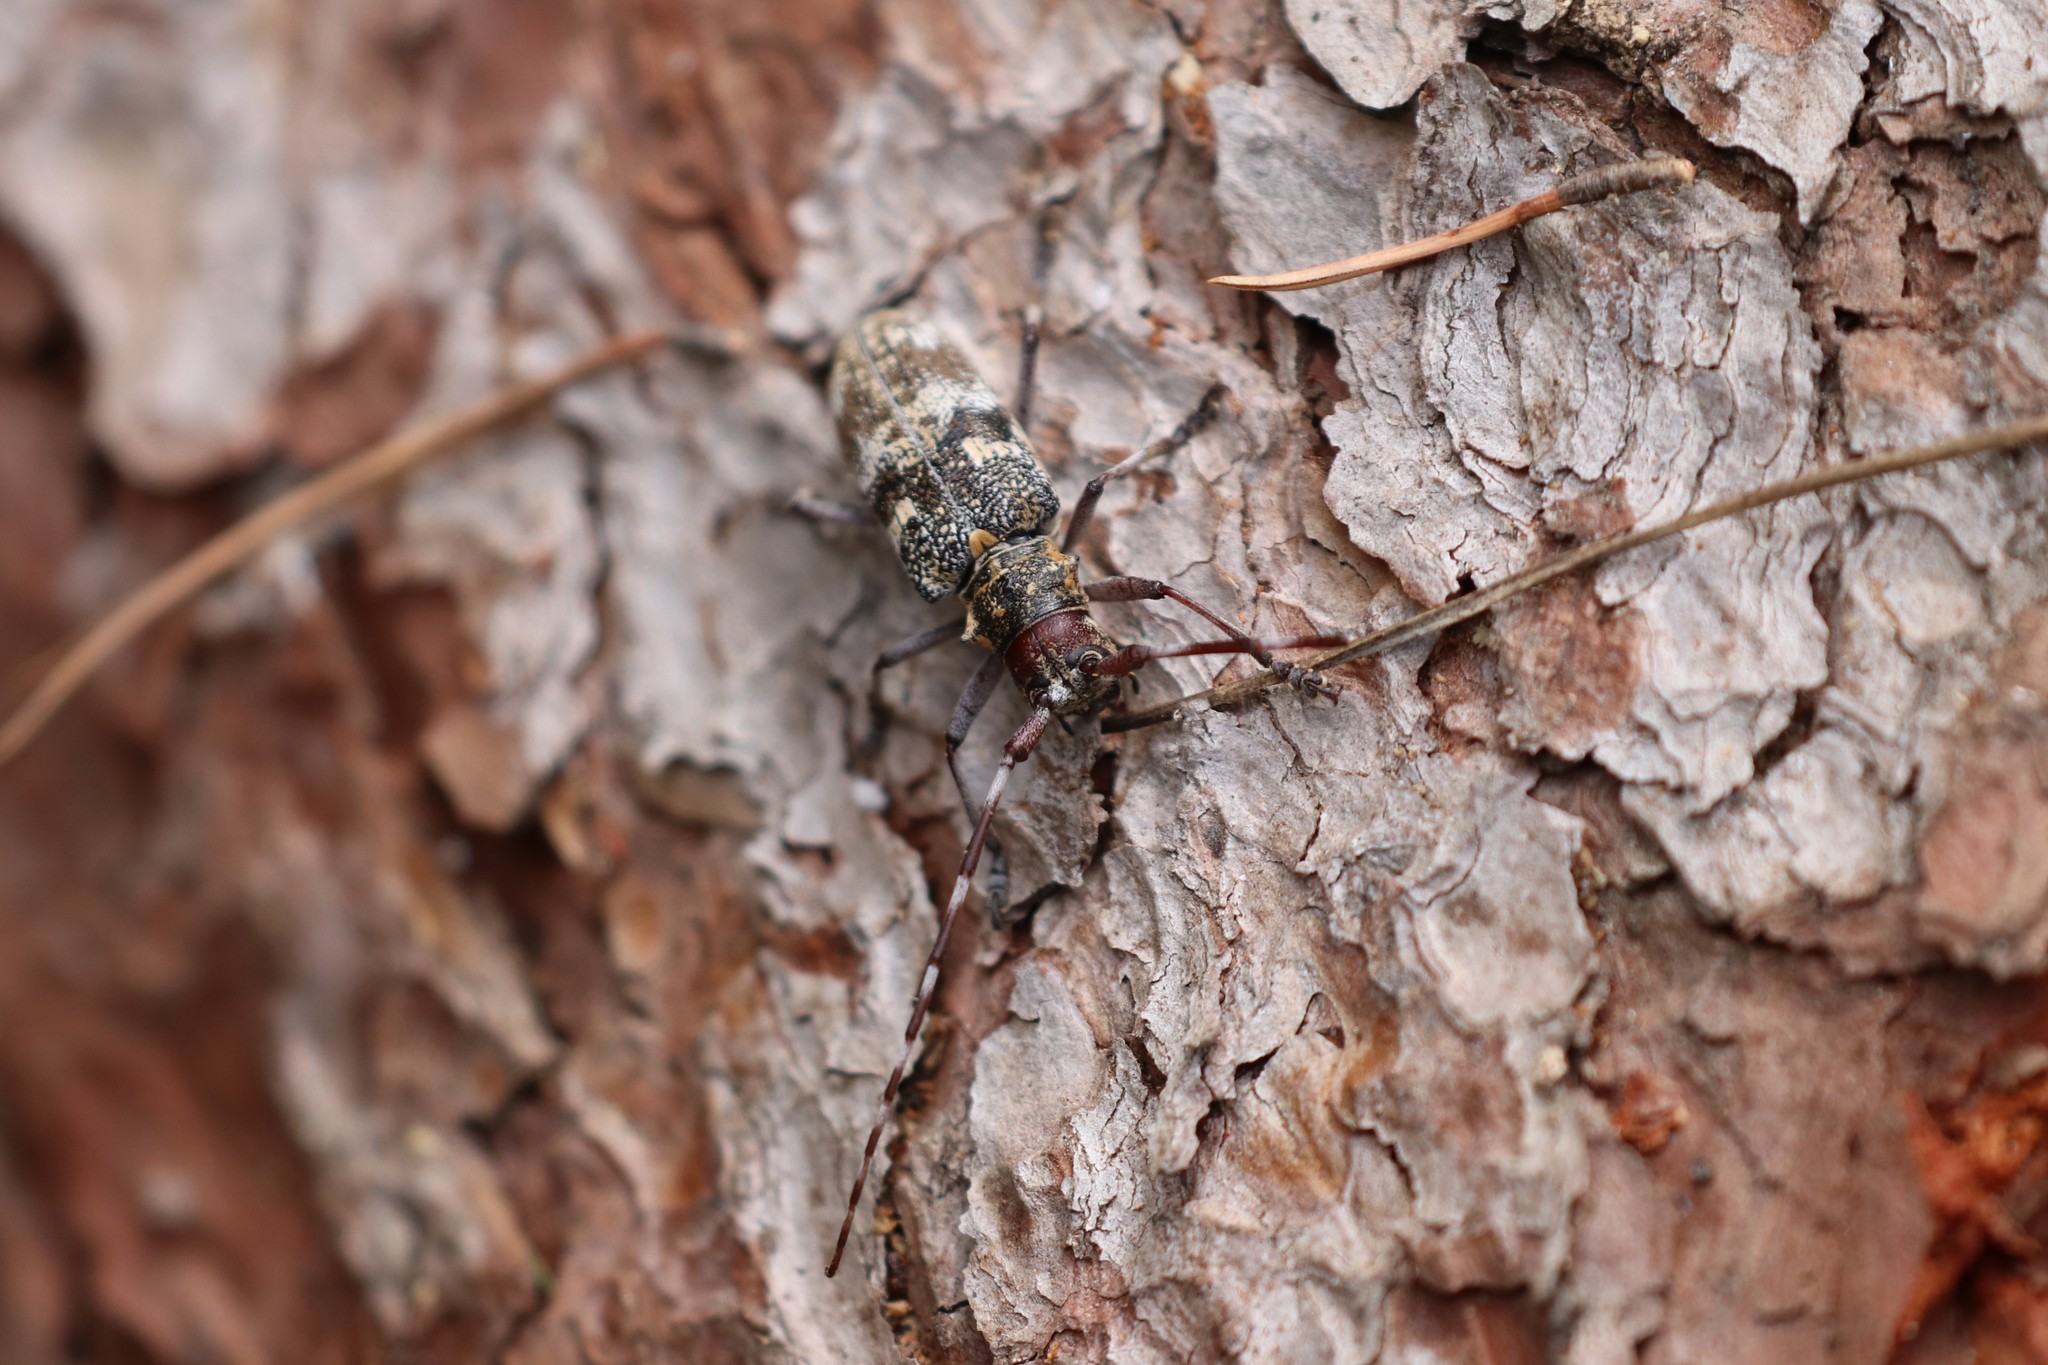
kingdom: Animalia
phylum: Arthropoda
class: Insecta
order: Coleoptera
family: Cerambycidae
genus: Monochamus
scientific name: Monochamus galloprovincialis
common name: Pine sawyer
